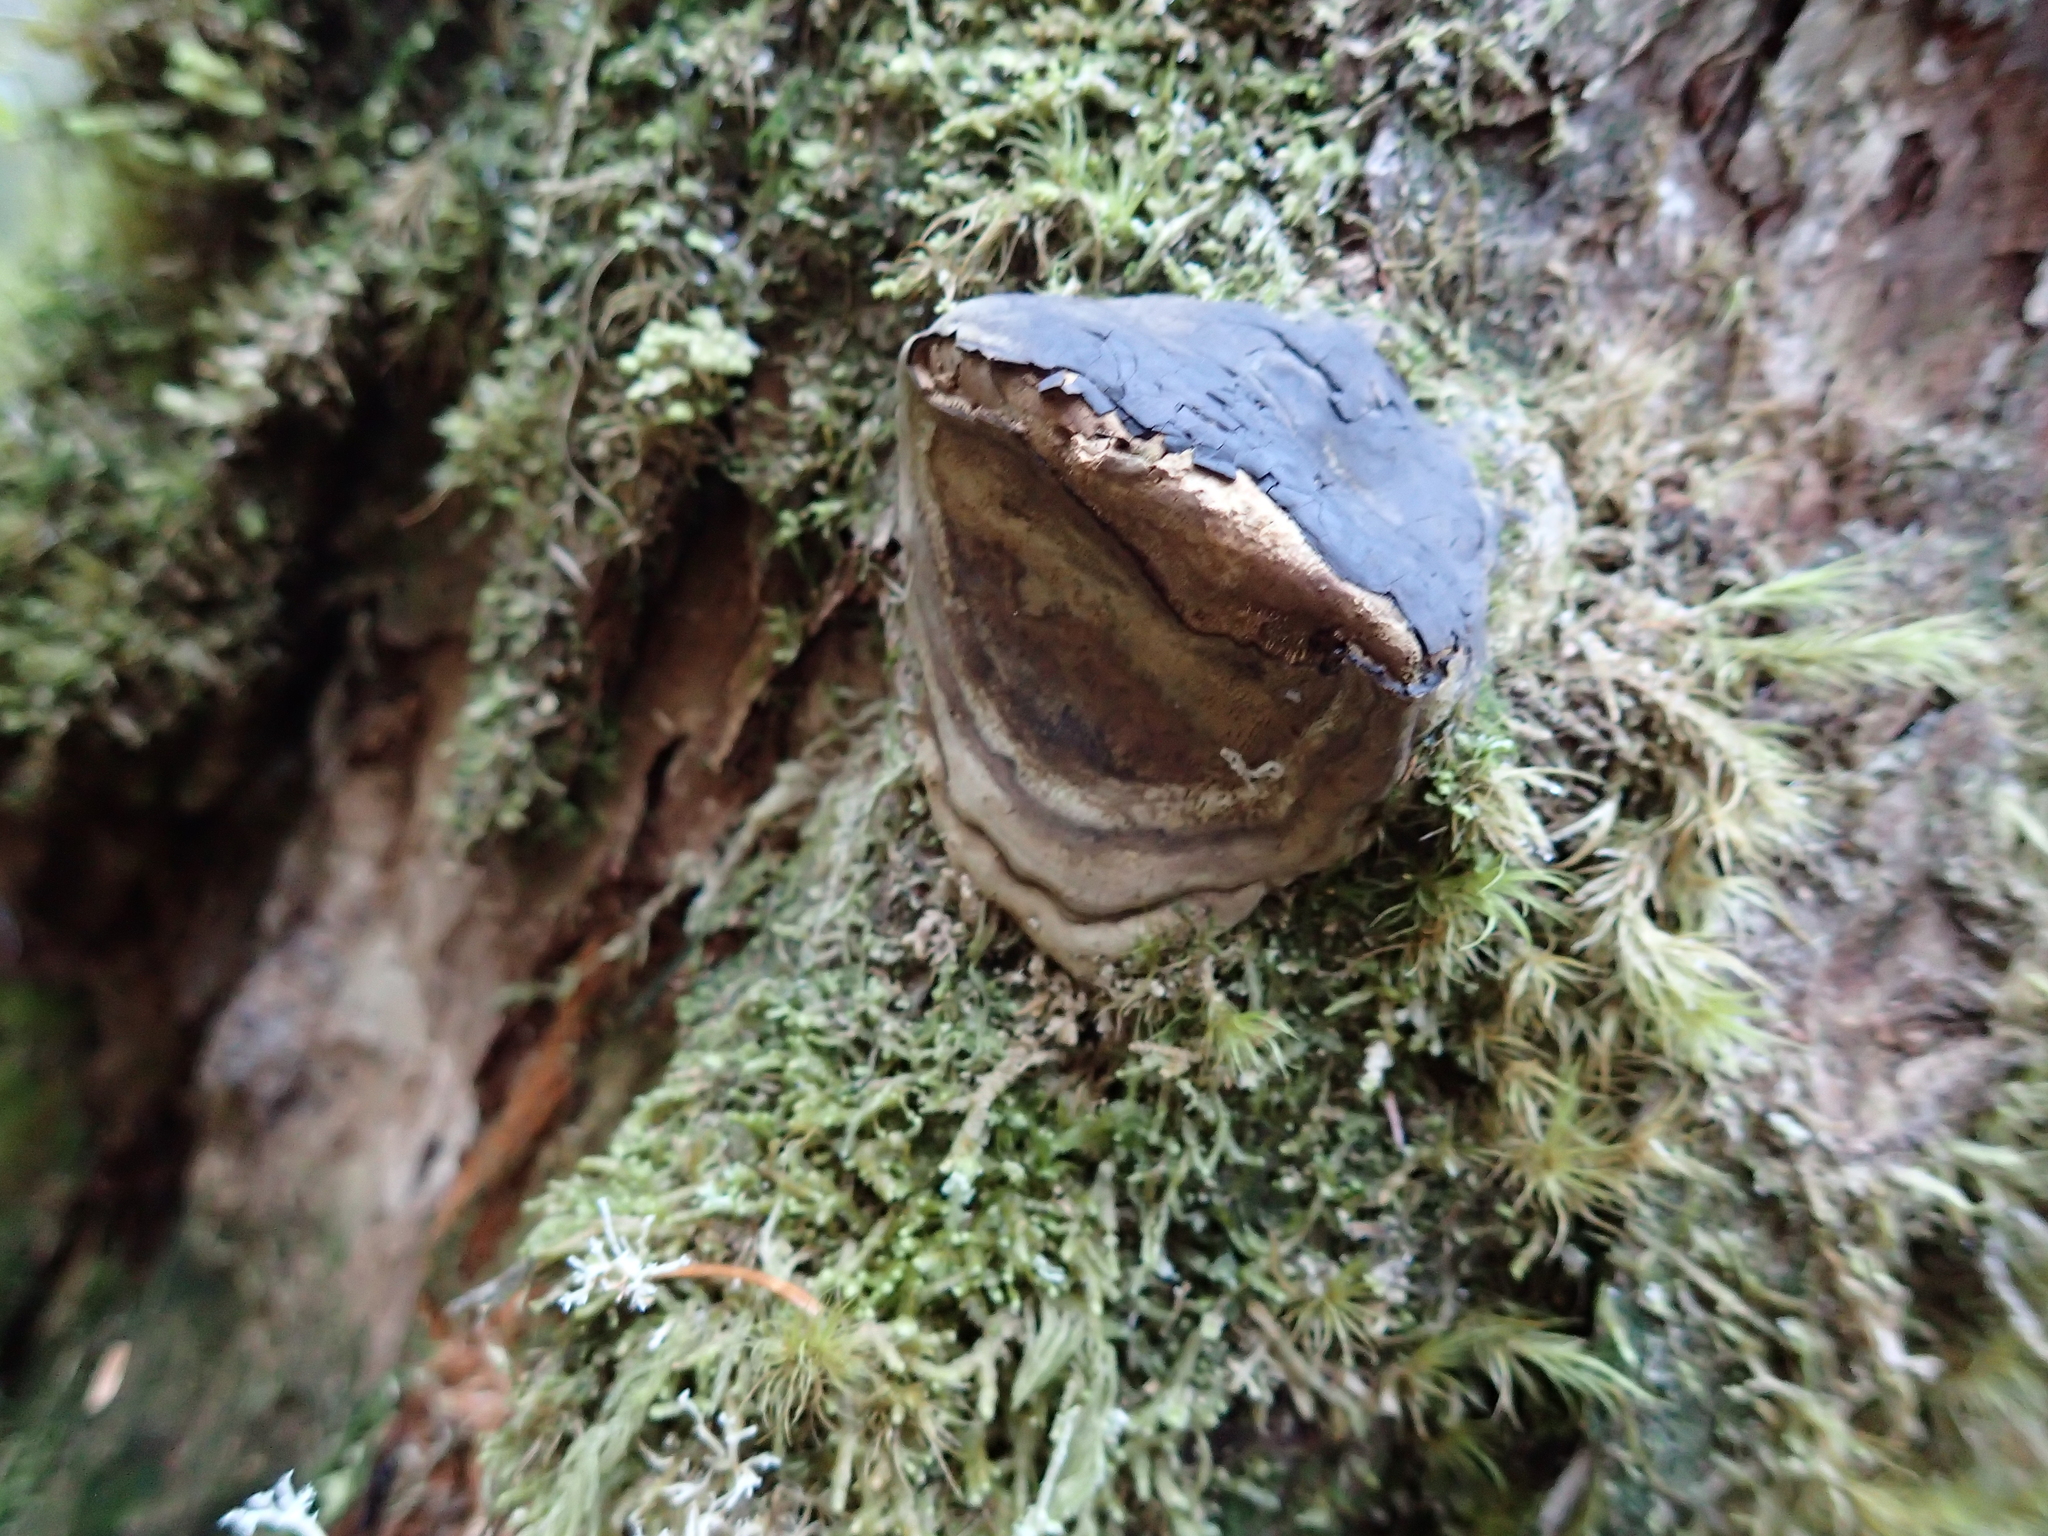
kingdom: Fungi
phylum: Basidiomycota
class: Agaricomycetes
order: Polyporales
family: Fomitopsidaceae
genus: Fomitopsis
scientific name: Fomitopsis ochracea
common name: American brown fomitopsis
